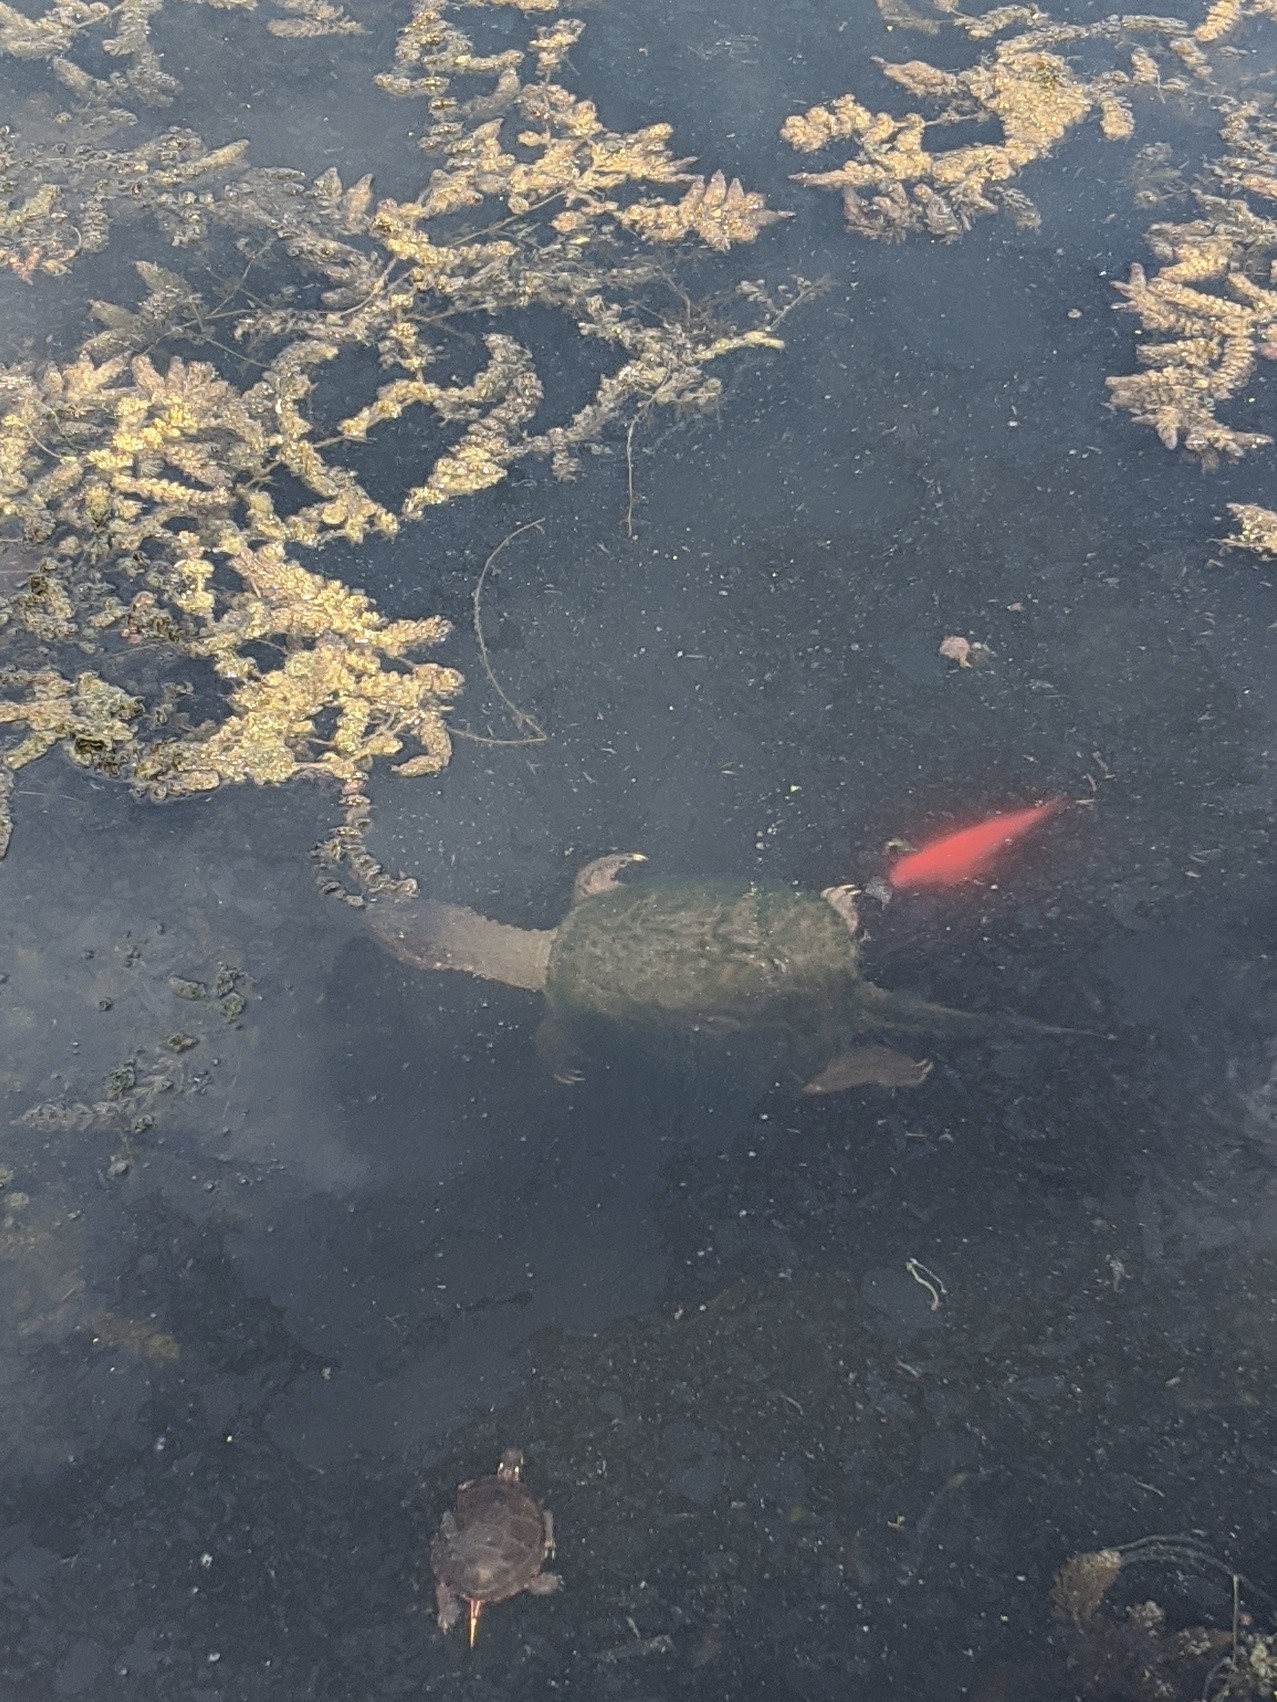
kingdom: Animalia
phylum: Chordata
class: Testudines
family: Chelydridae
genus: Chelydra
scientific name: Chelydra serpentina
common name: Common snapping turtle
